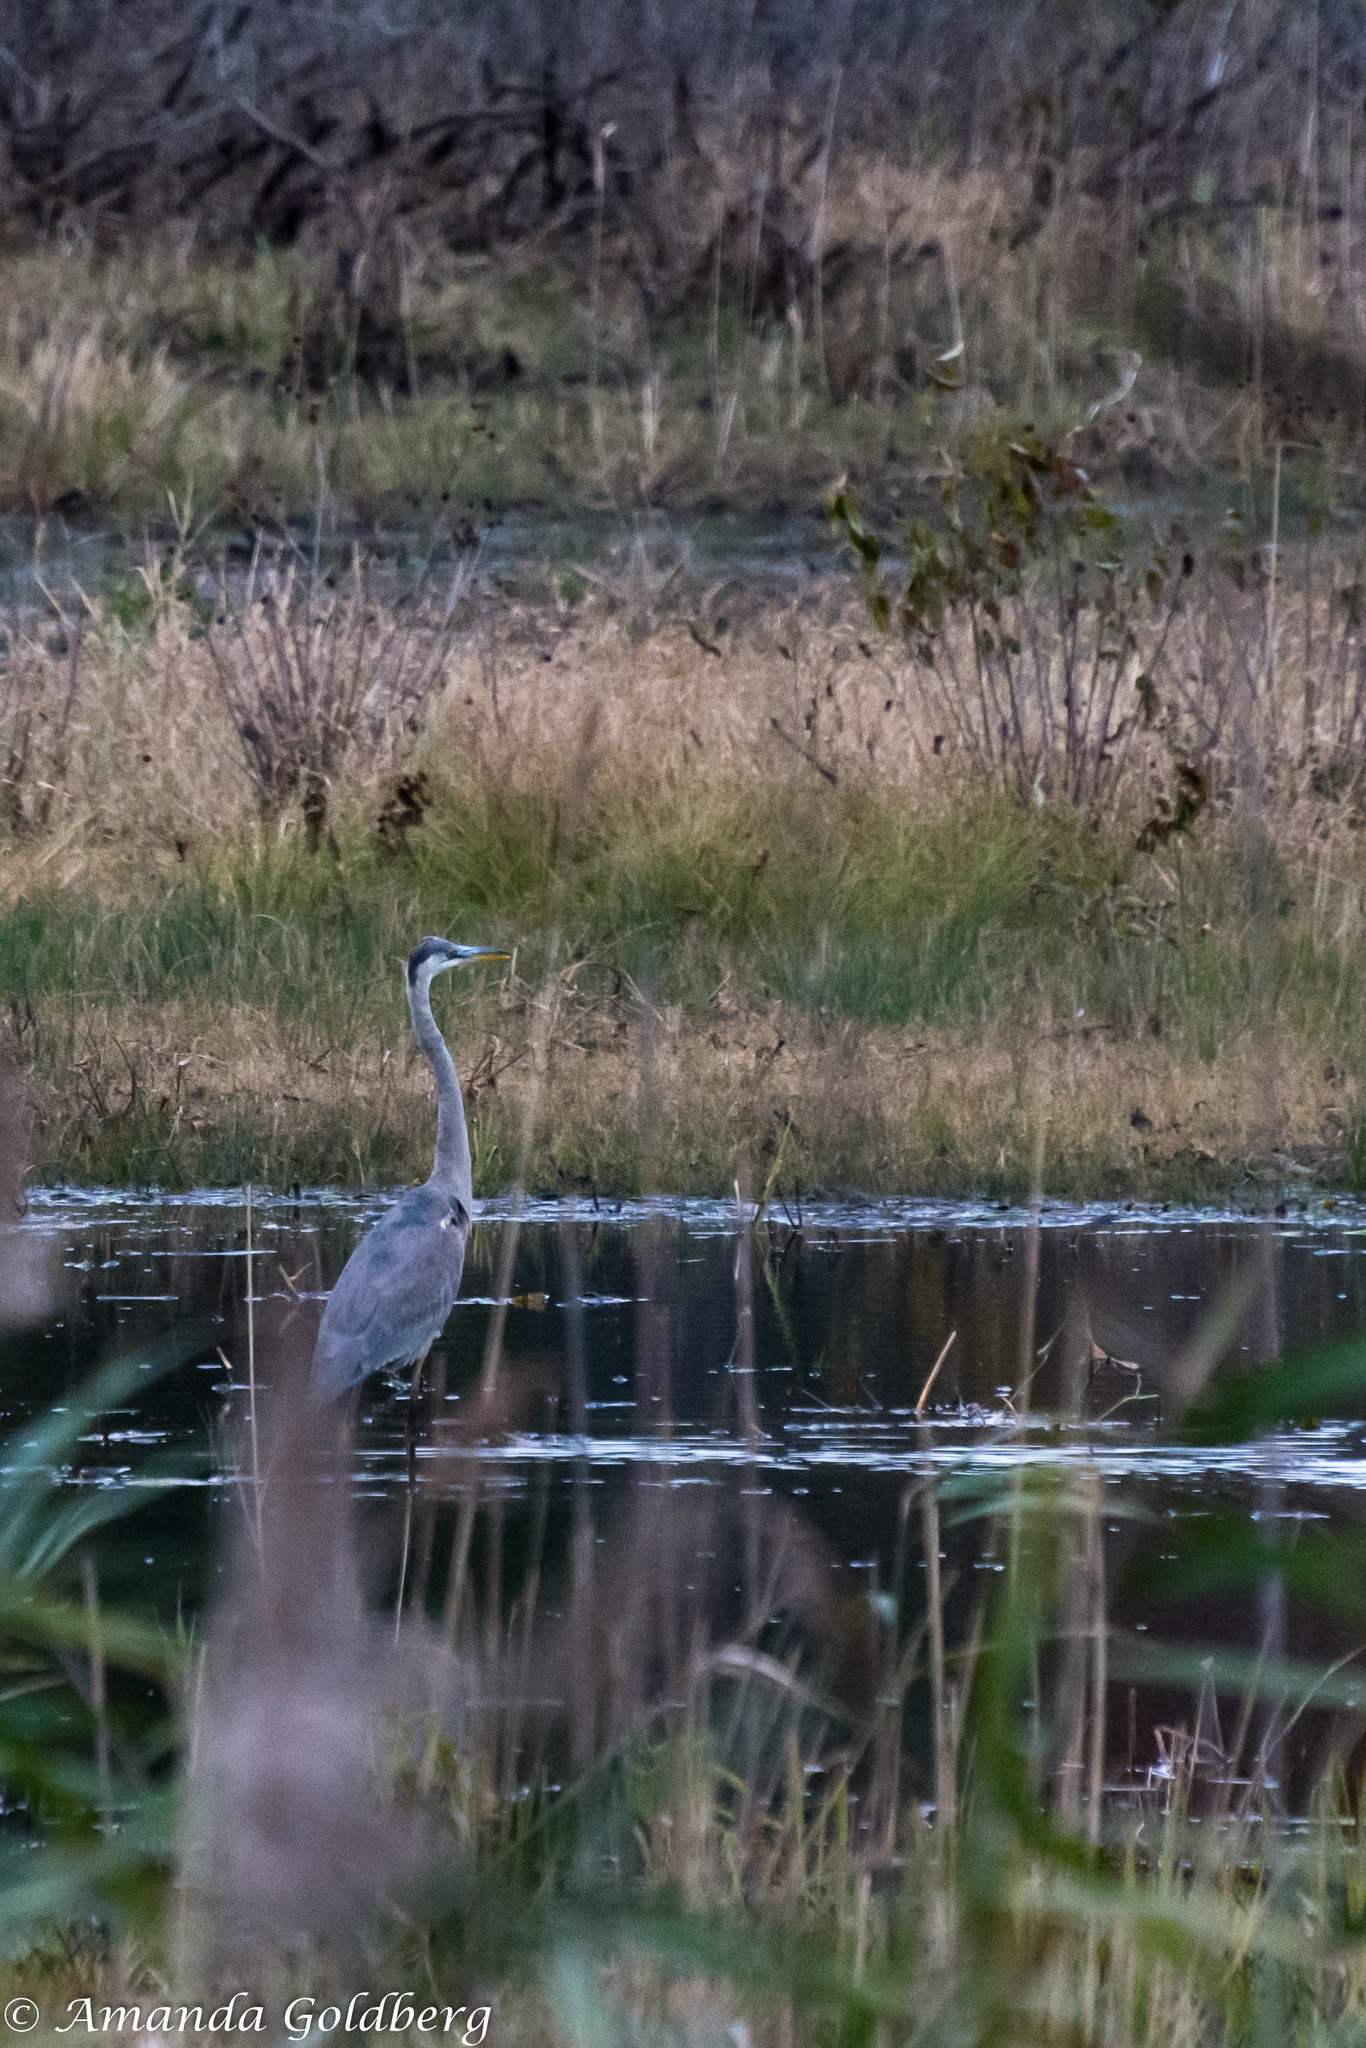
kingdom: Animalia
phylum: Chordata
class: Aves
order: Pelecaniformes
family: Ardeidae
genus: Ardea
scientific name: Ardea herodias
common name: Great blue heron
